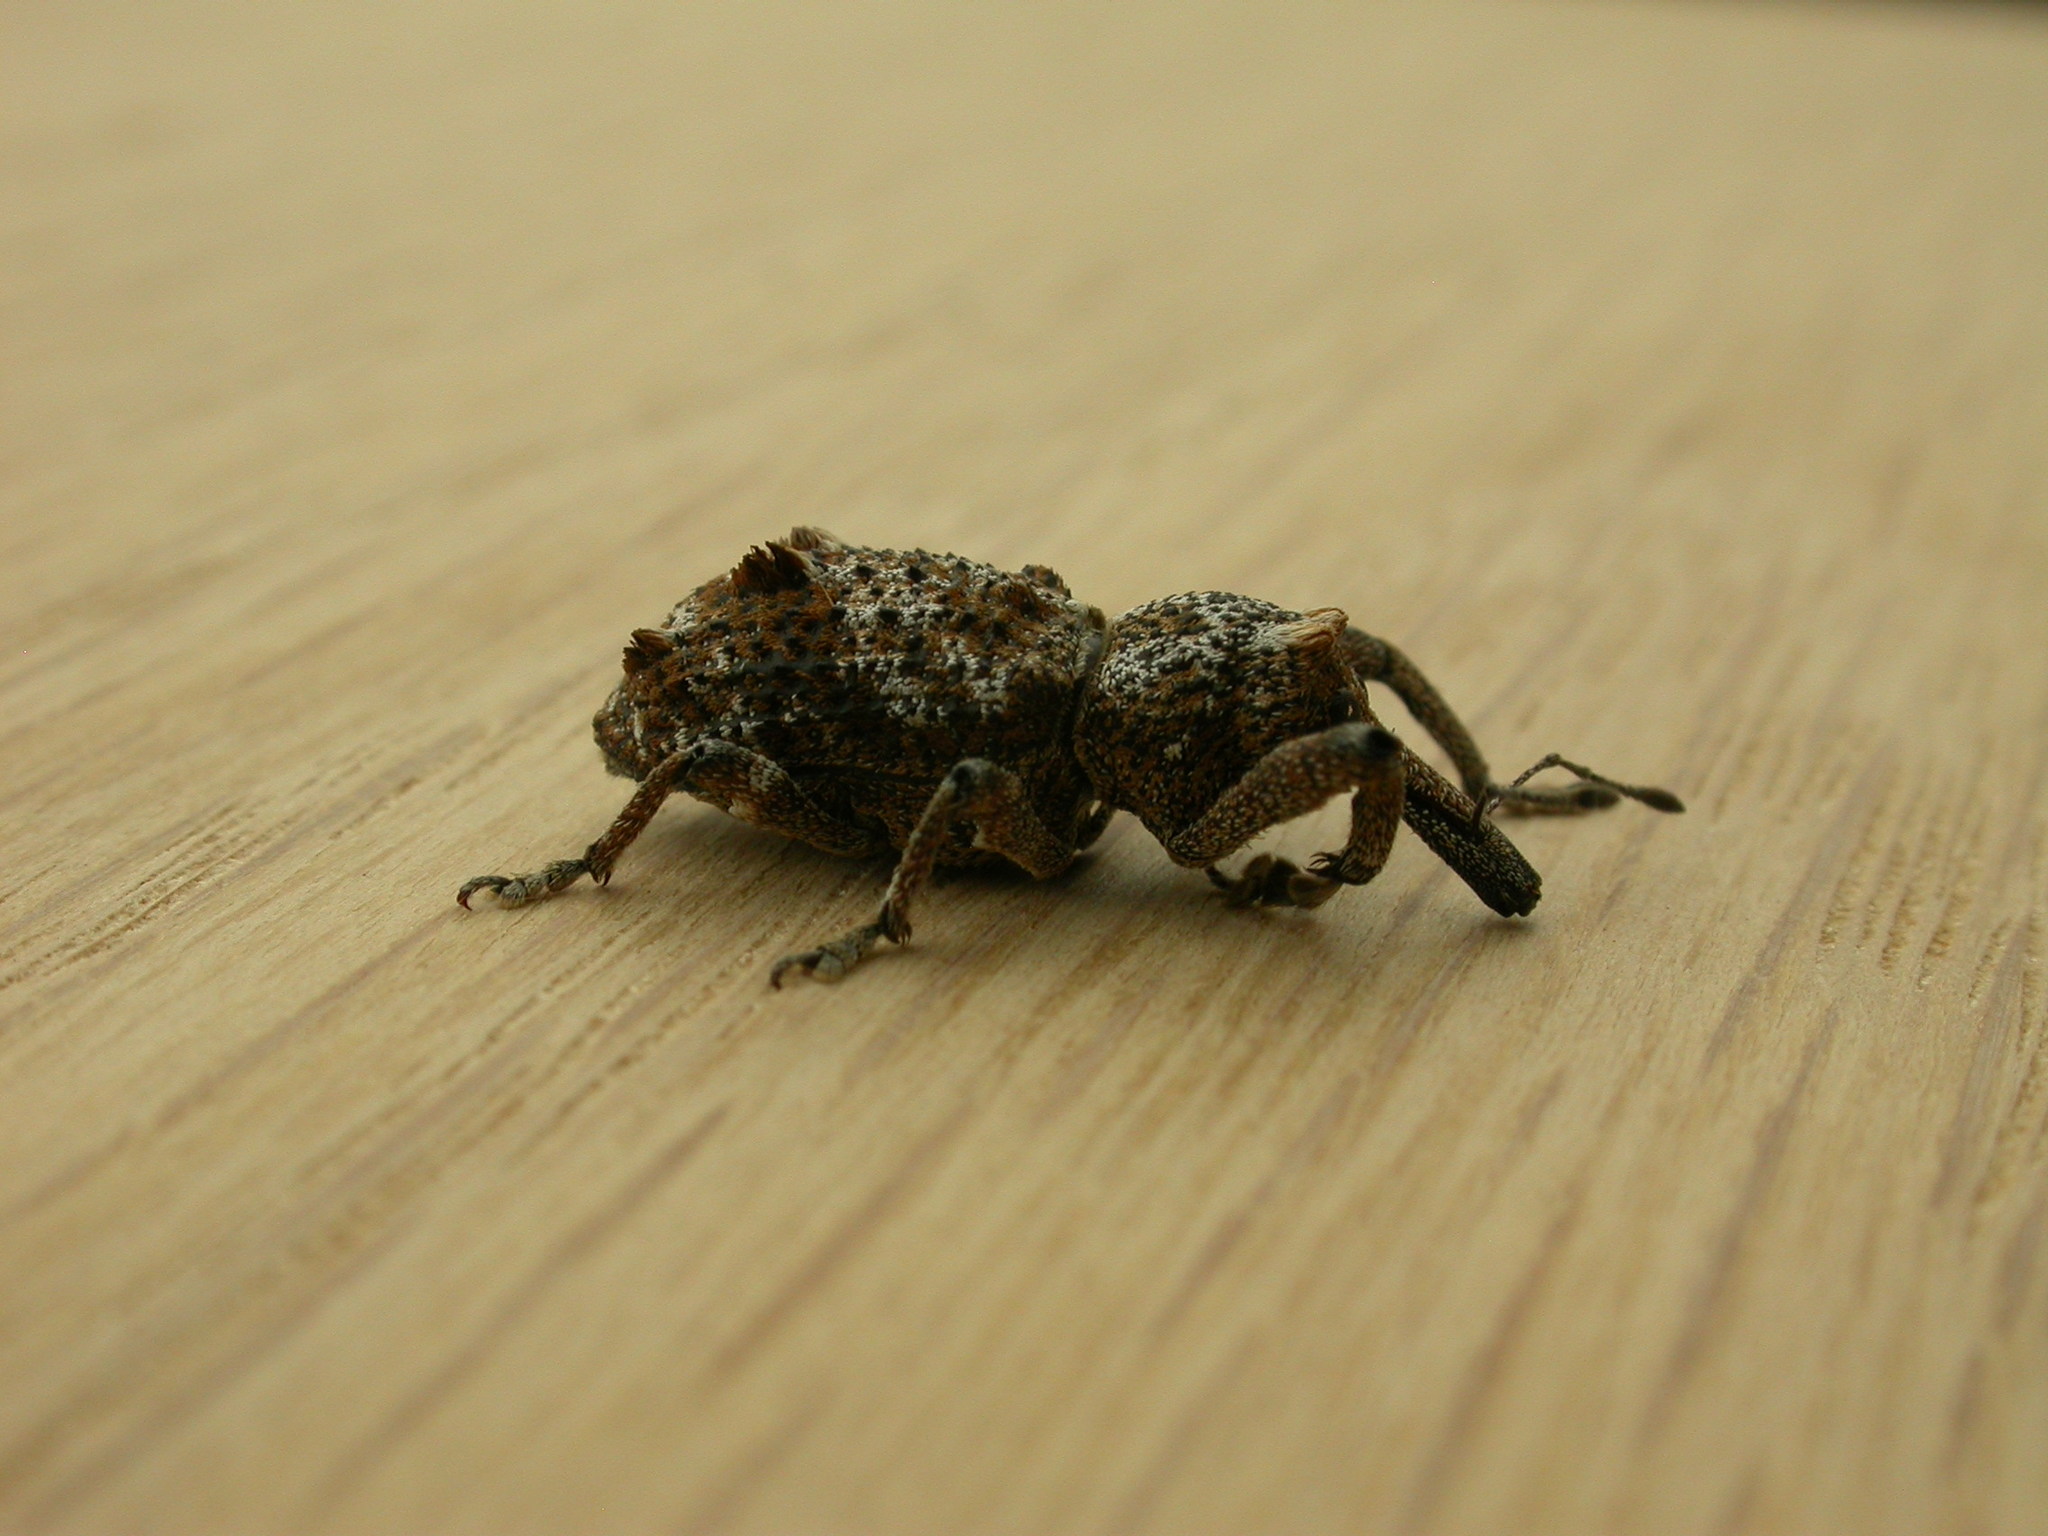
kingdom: Animalia
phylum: Arthropoda
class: Insecta
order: Coleoptera
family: Curculionidae
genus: Orthorhinus
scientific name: Orthorhinus cylindrirostris
